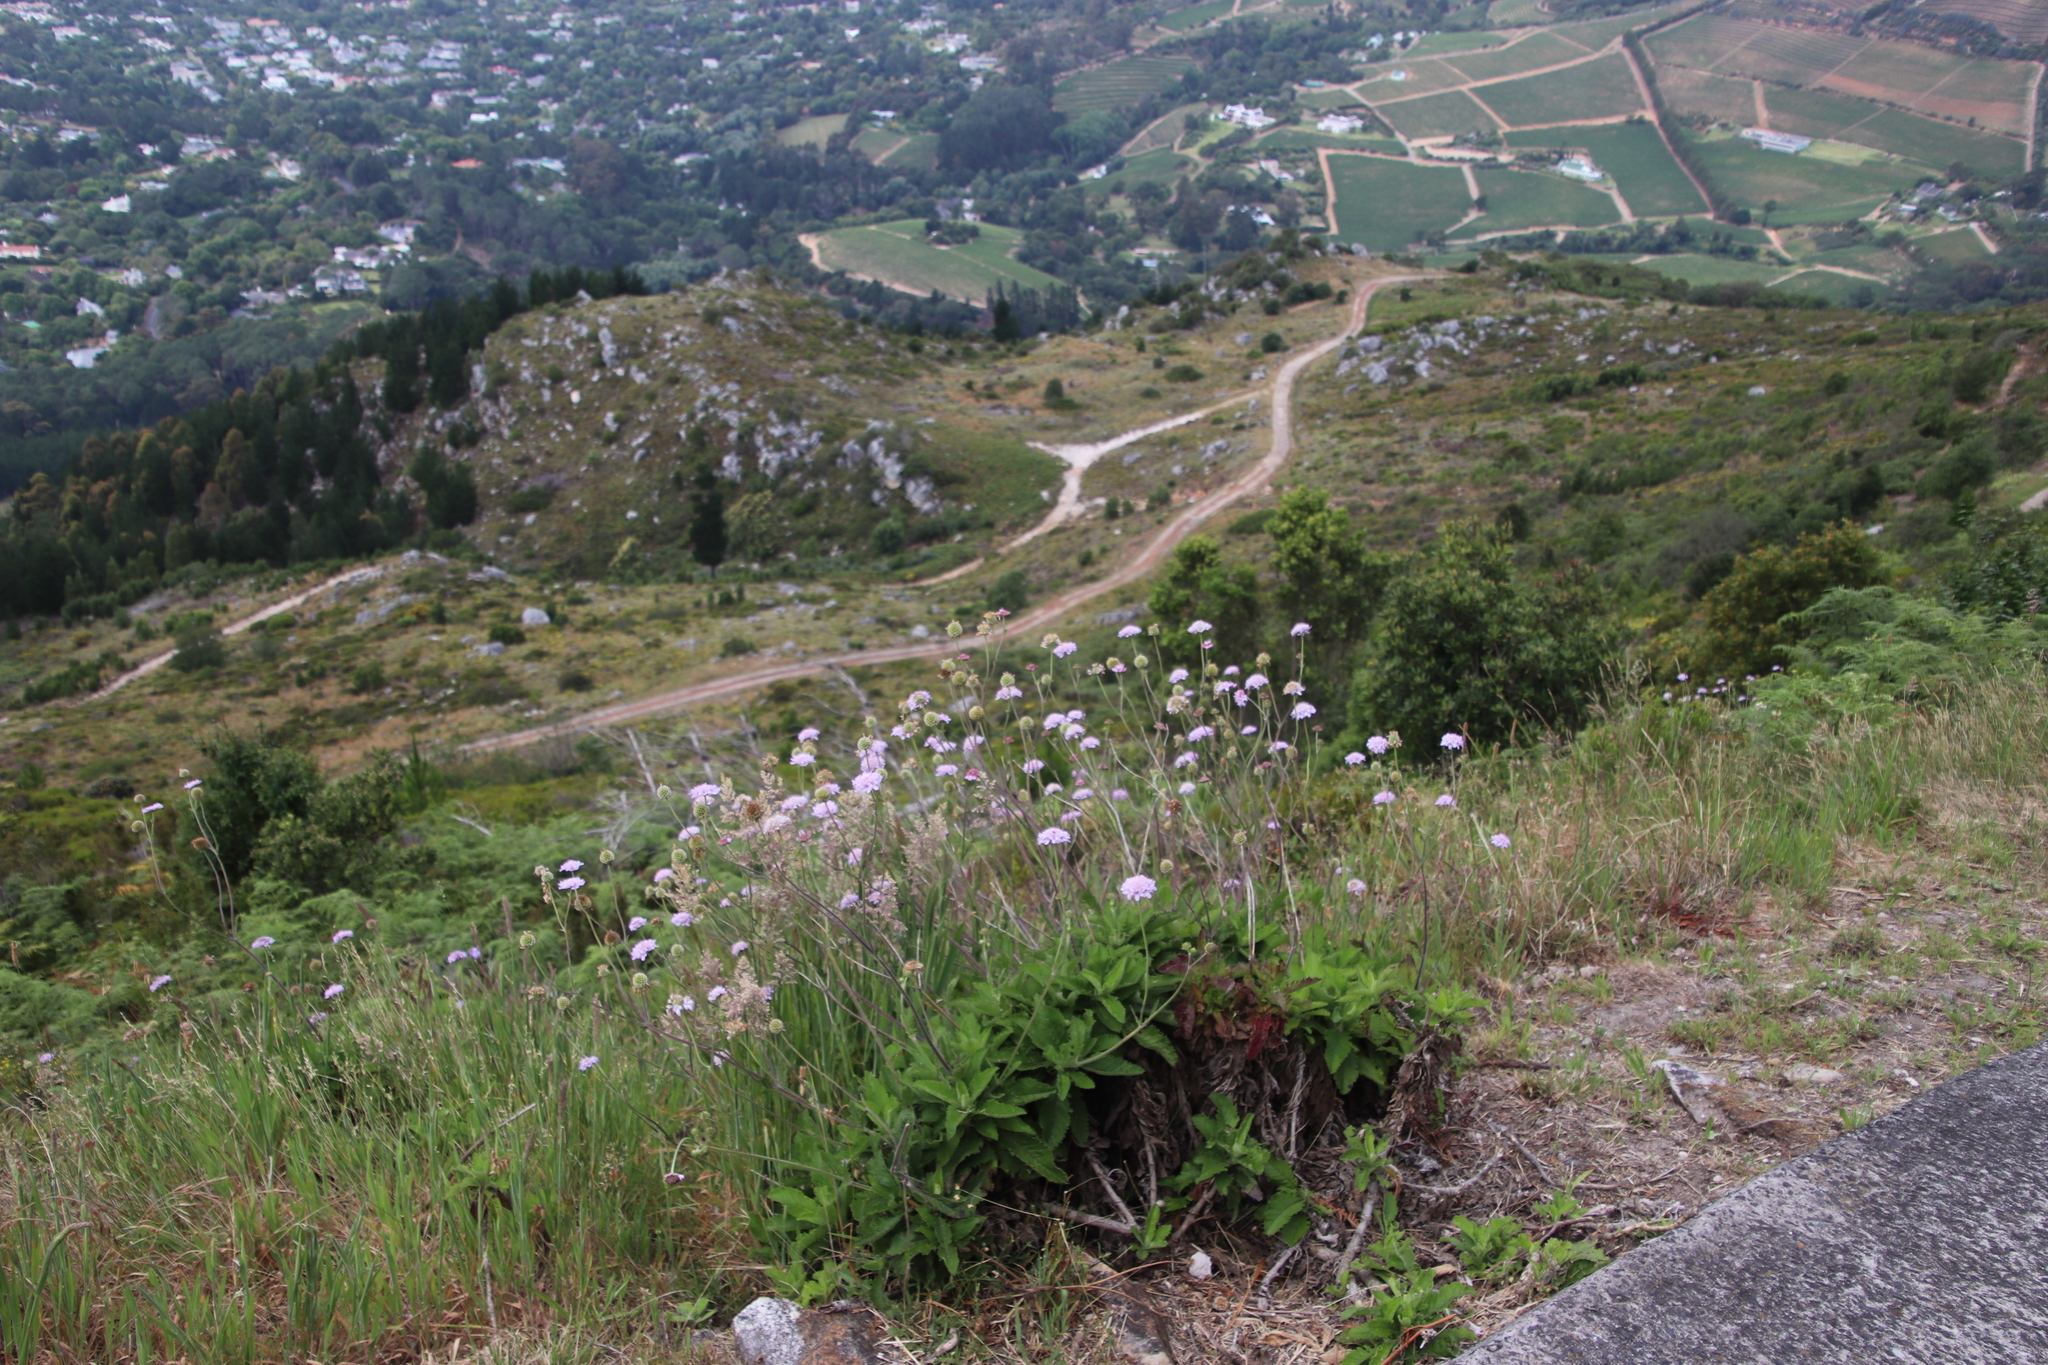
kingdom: Plantae
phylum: Tracheophyta
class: Magnoliopsida
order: Dipsacales
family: Caprifoliaceae
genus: Scabiosa
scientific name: Scabiosa africana
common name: Cape scabious
